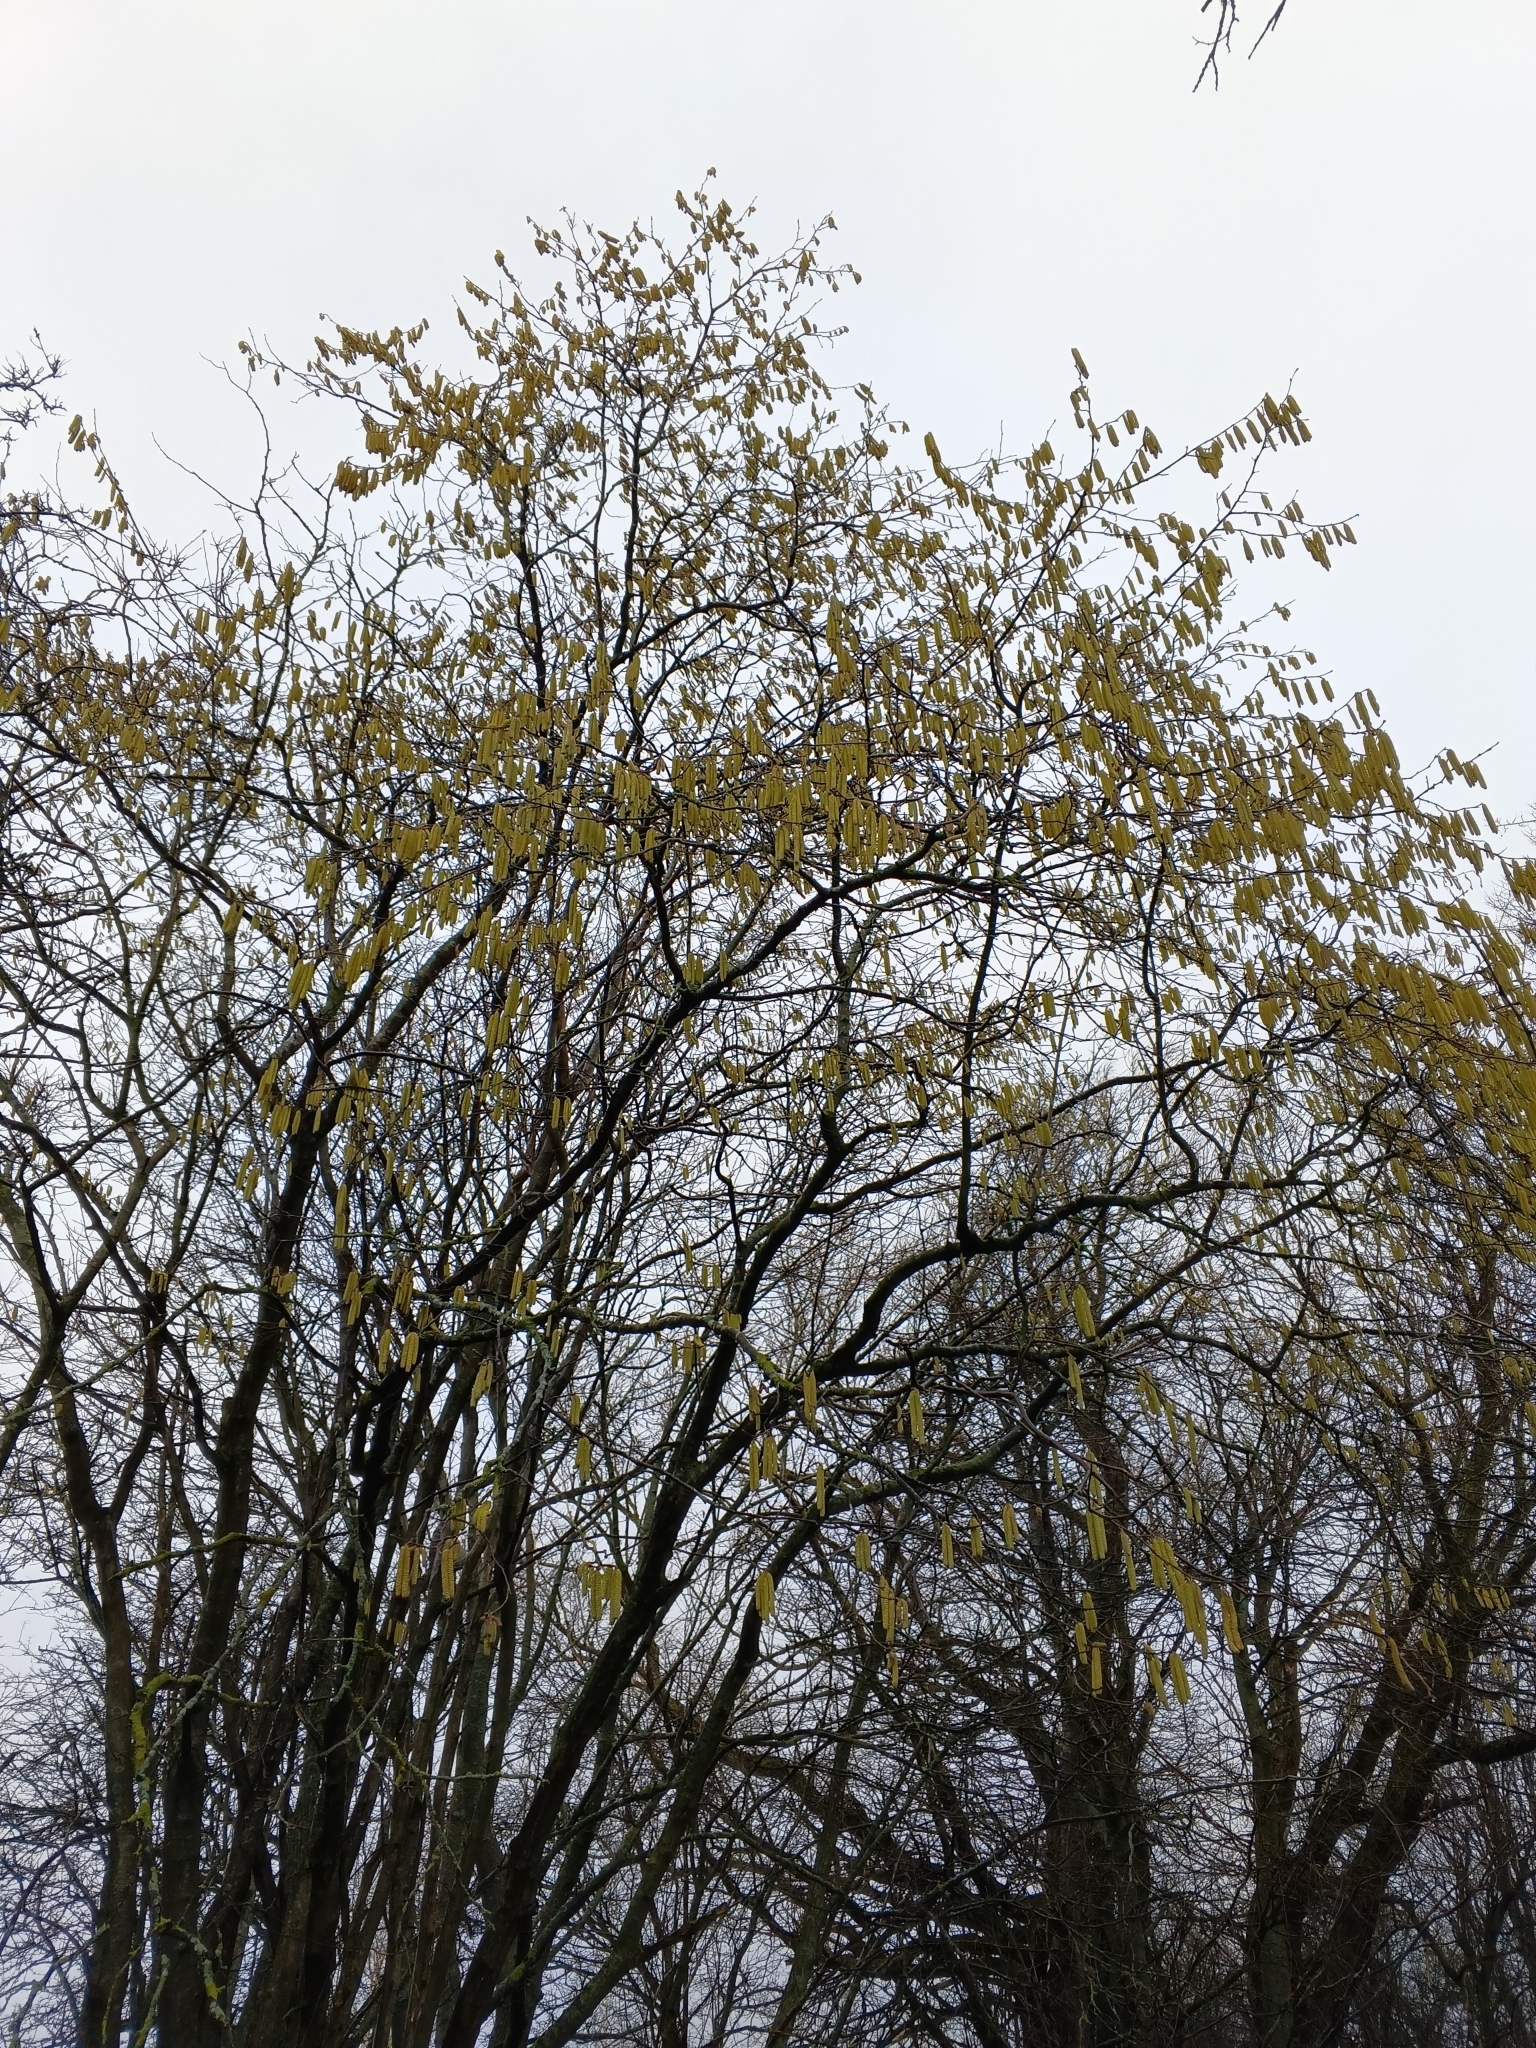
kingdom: Plantae
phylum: Tracheophyta
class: Magnoliopsida
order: Fagales
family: Betulaceae
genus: Corylus
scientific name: Corylus avellana
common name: European hazel
